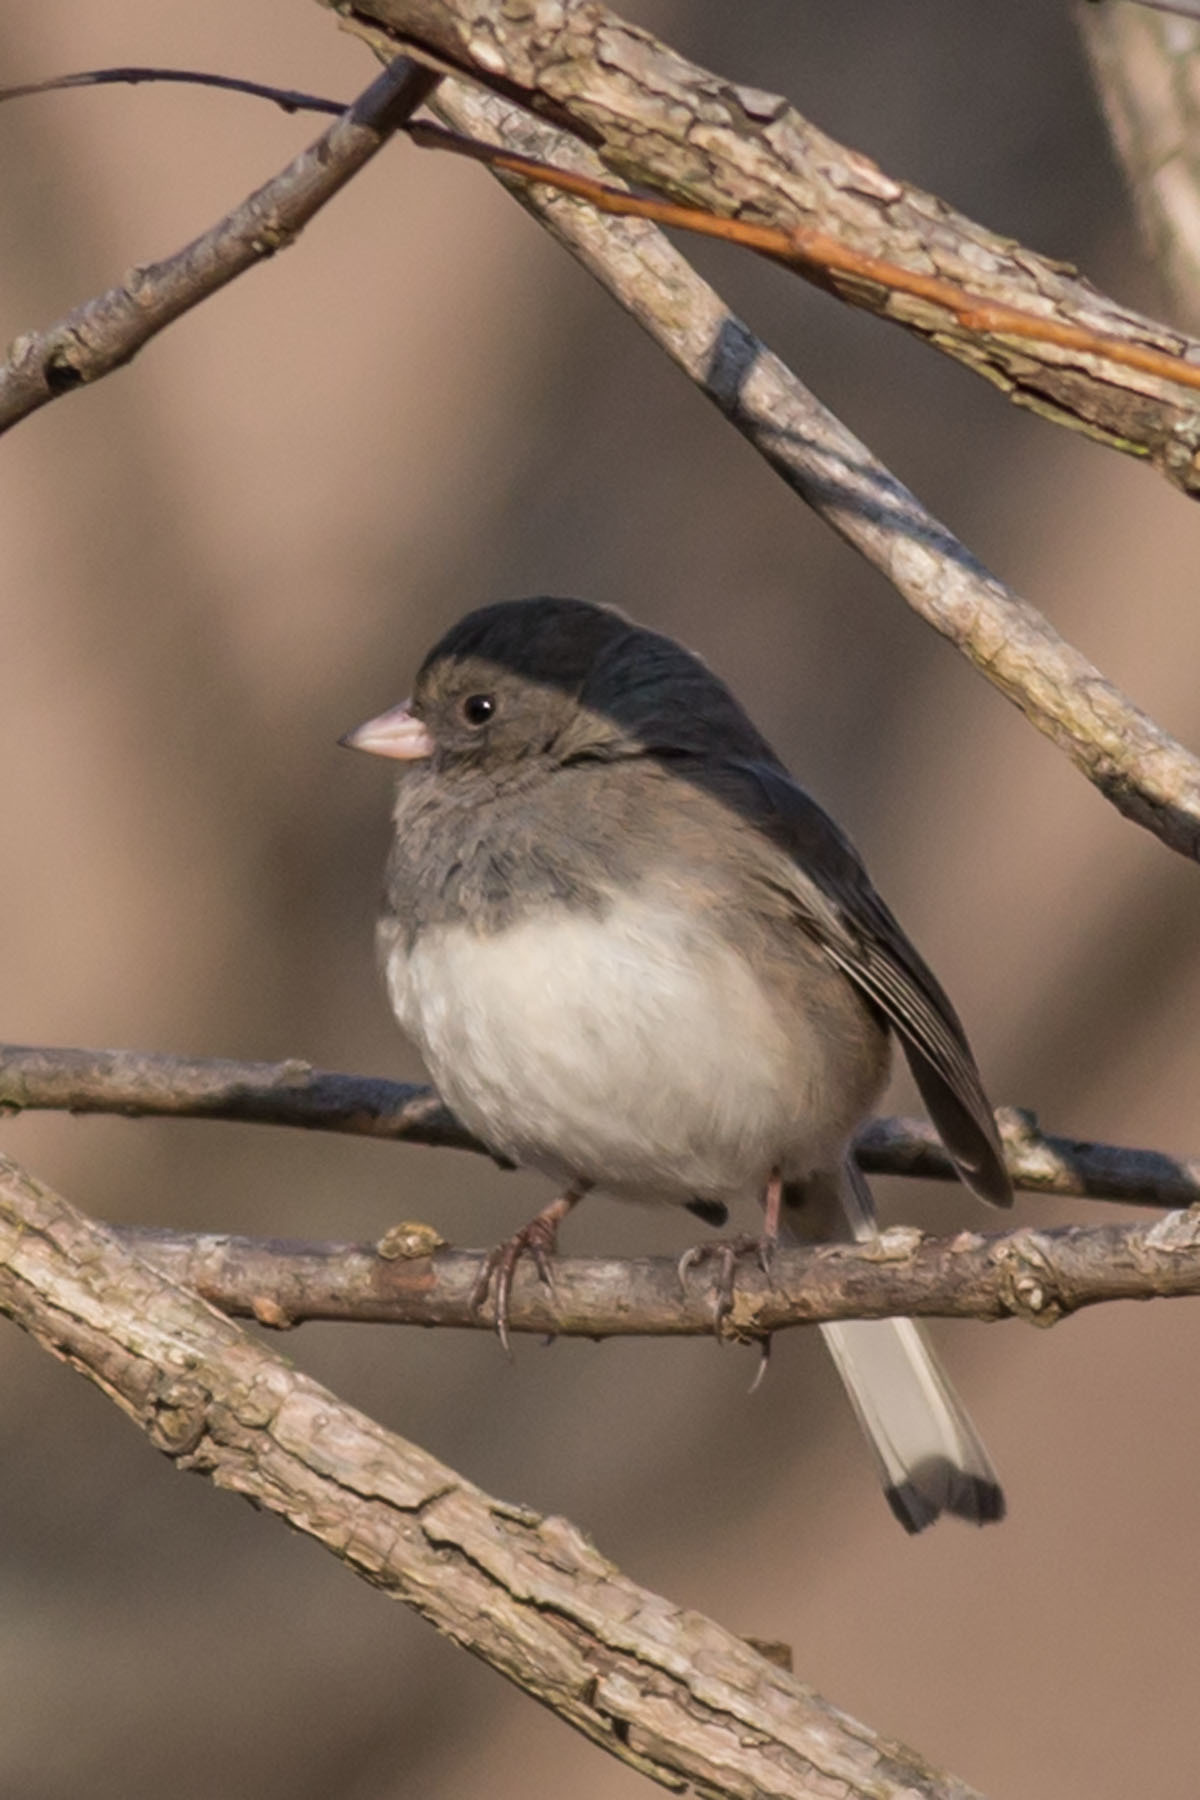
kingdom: Animalia
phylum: Chordata
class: Aves
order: Passeriformes
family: Passerellidae
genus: Junco
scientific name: Junco hyemalis
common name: Dark-eyed junco
